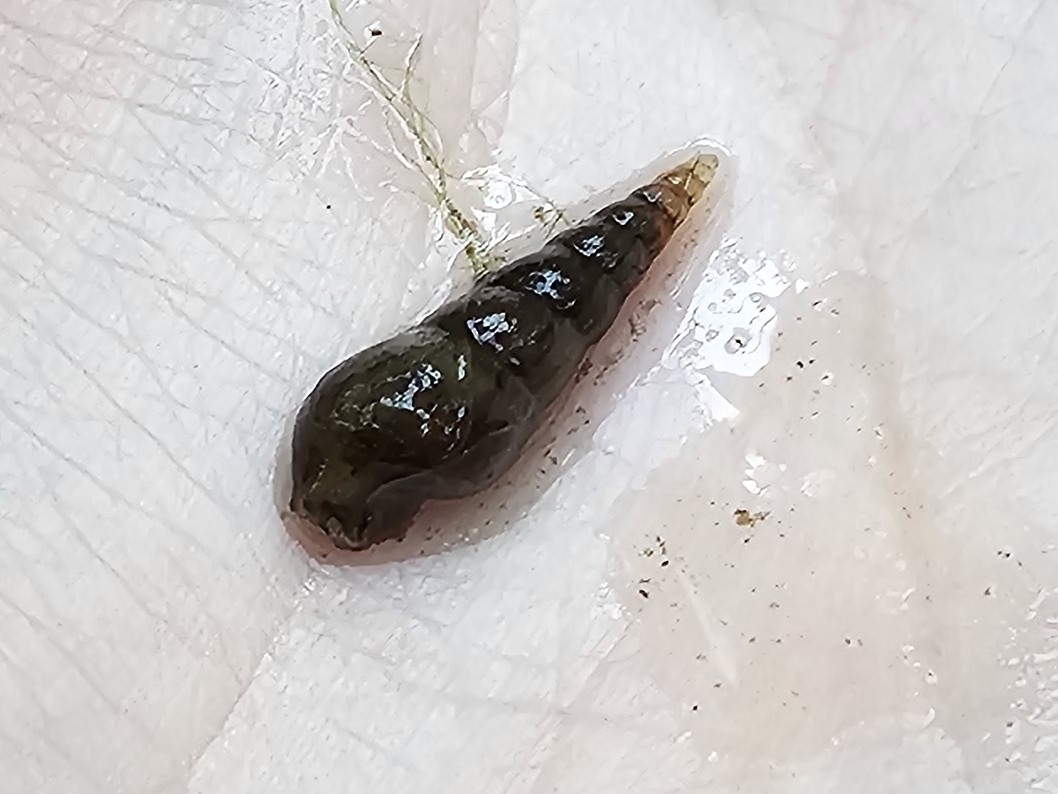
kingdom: Animalia
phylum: Mollusca
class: Gastropoda
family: Thiaridae
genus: Melanoides
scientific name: Melanoides tuberculata
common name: Red-rim melania
